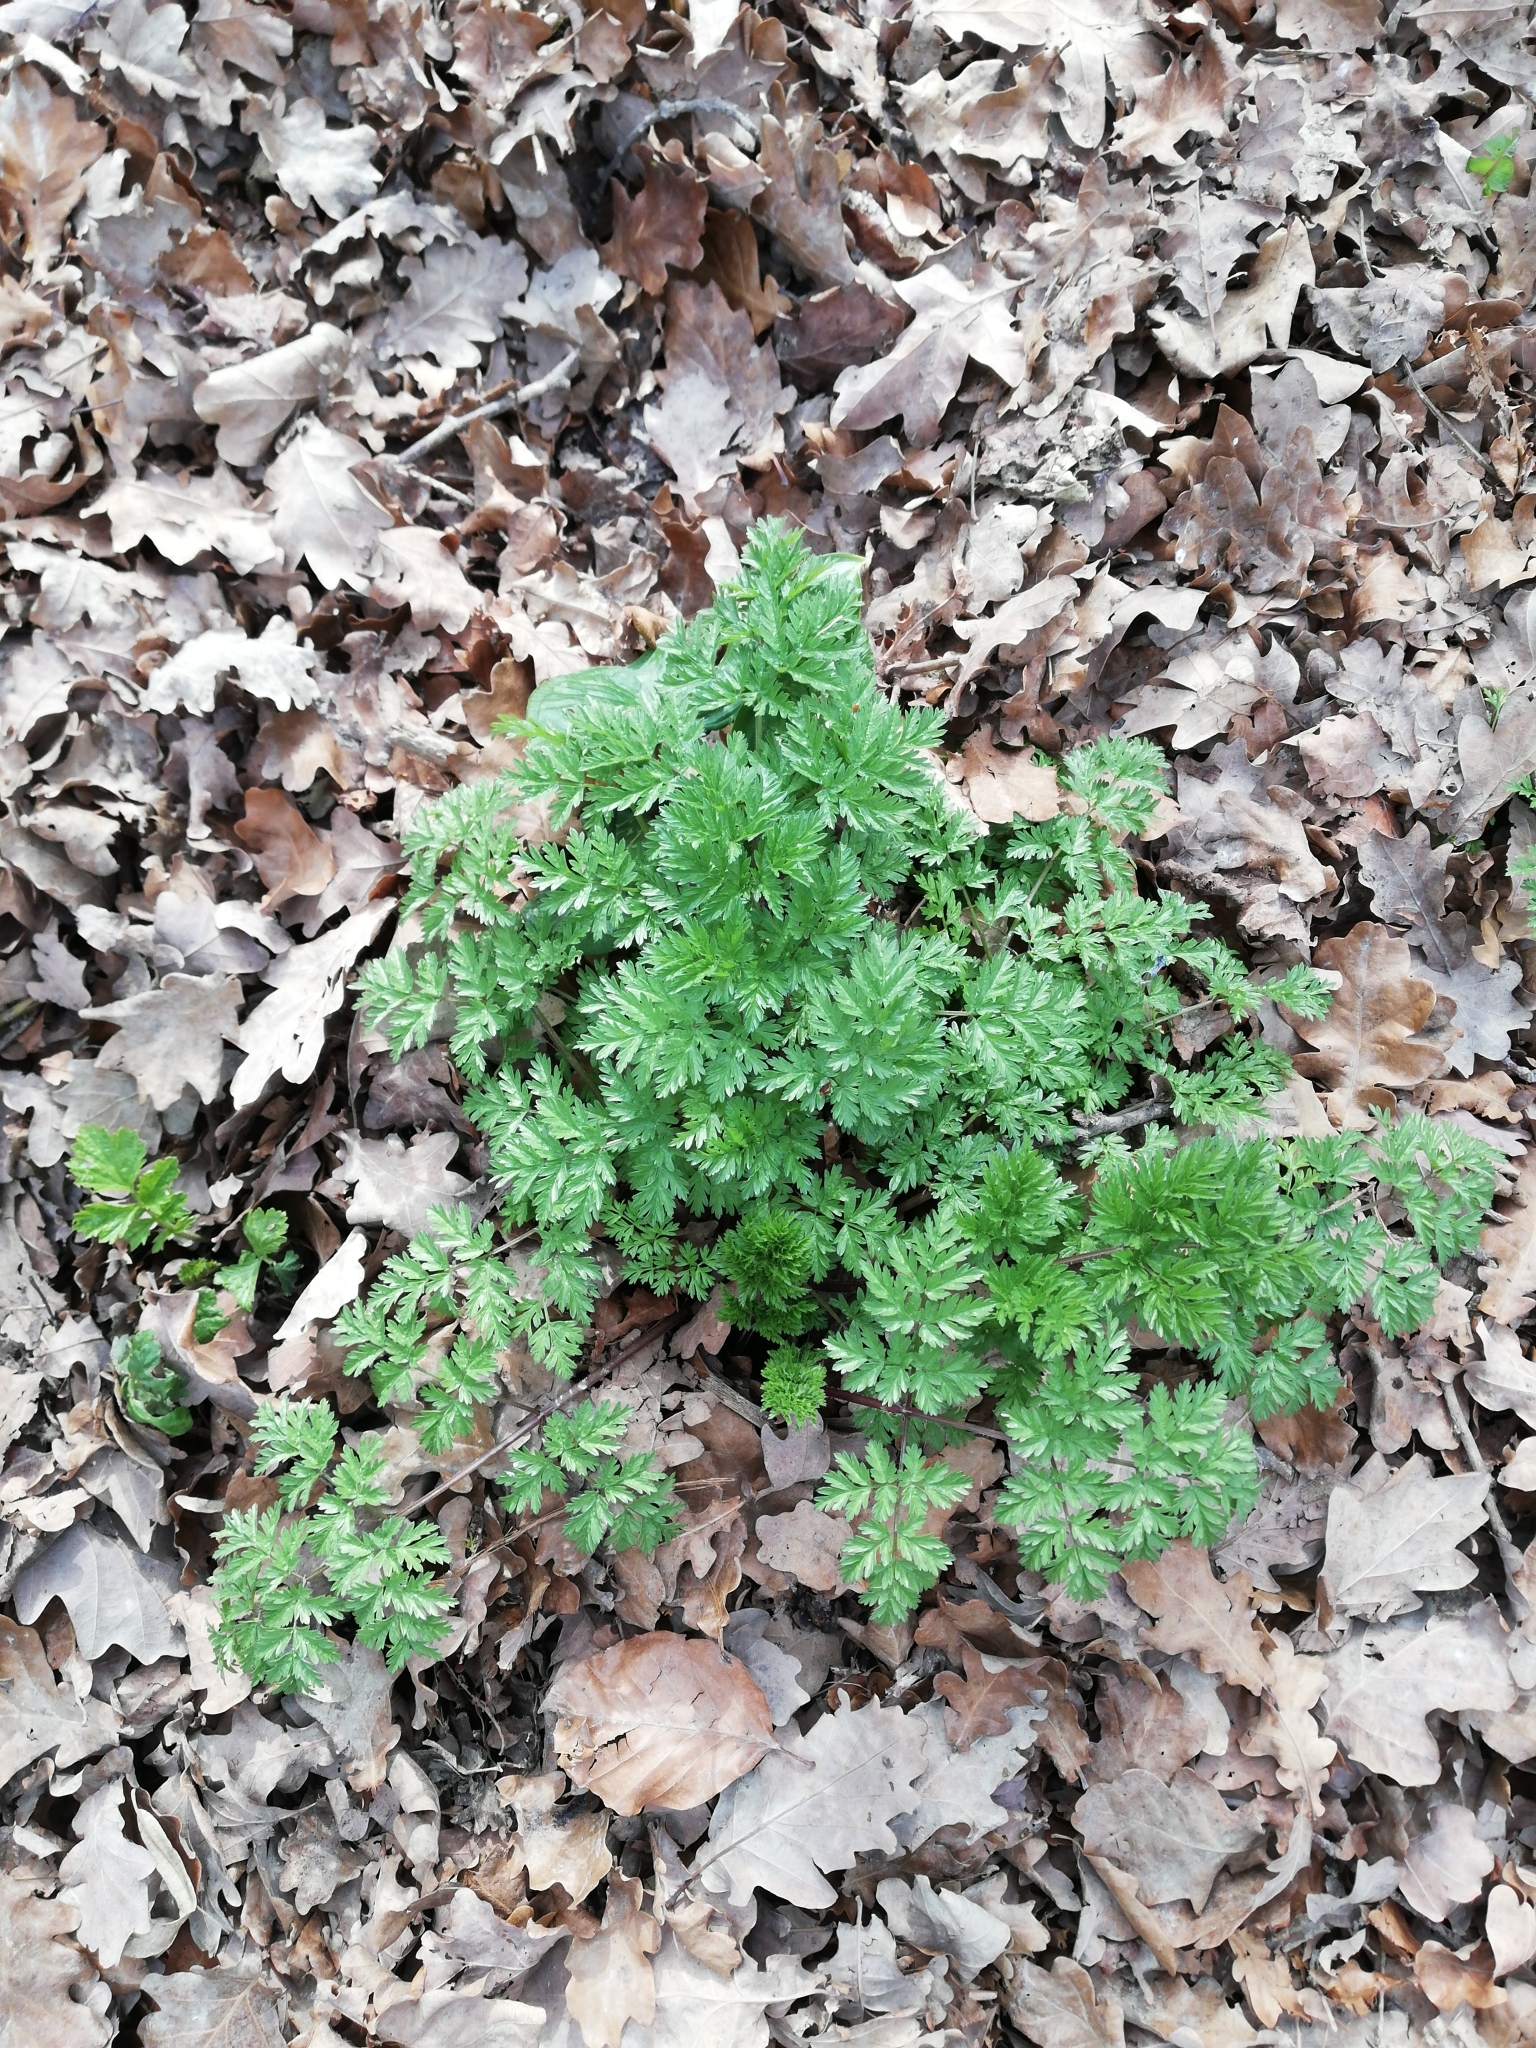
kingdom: Plantae
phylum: Tracheophyta
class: Magnoliopsida
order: Apiales
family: Apiaceae
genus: Anthriscus
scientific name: Anthriscus sylvestris
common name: Cow parsley
